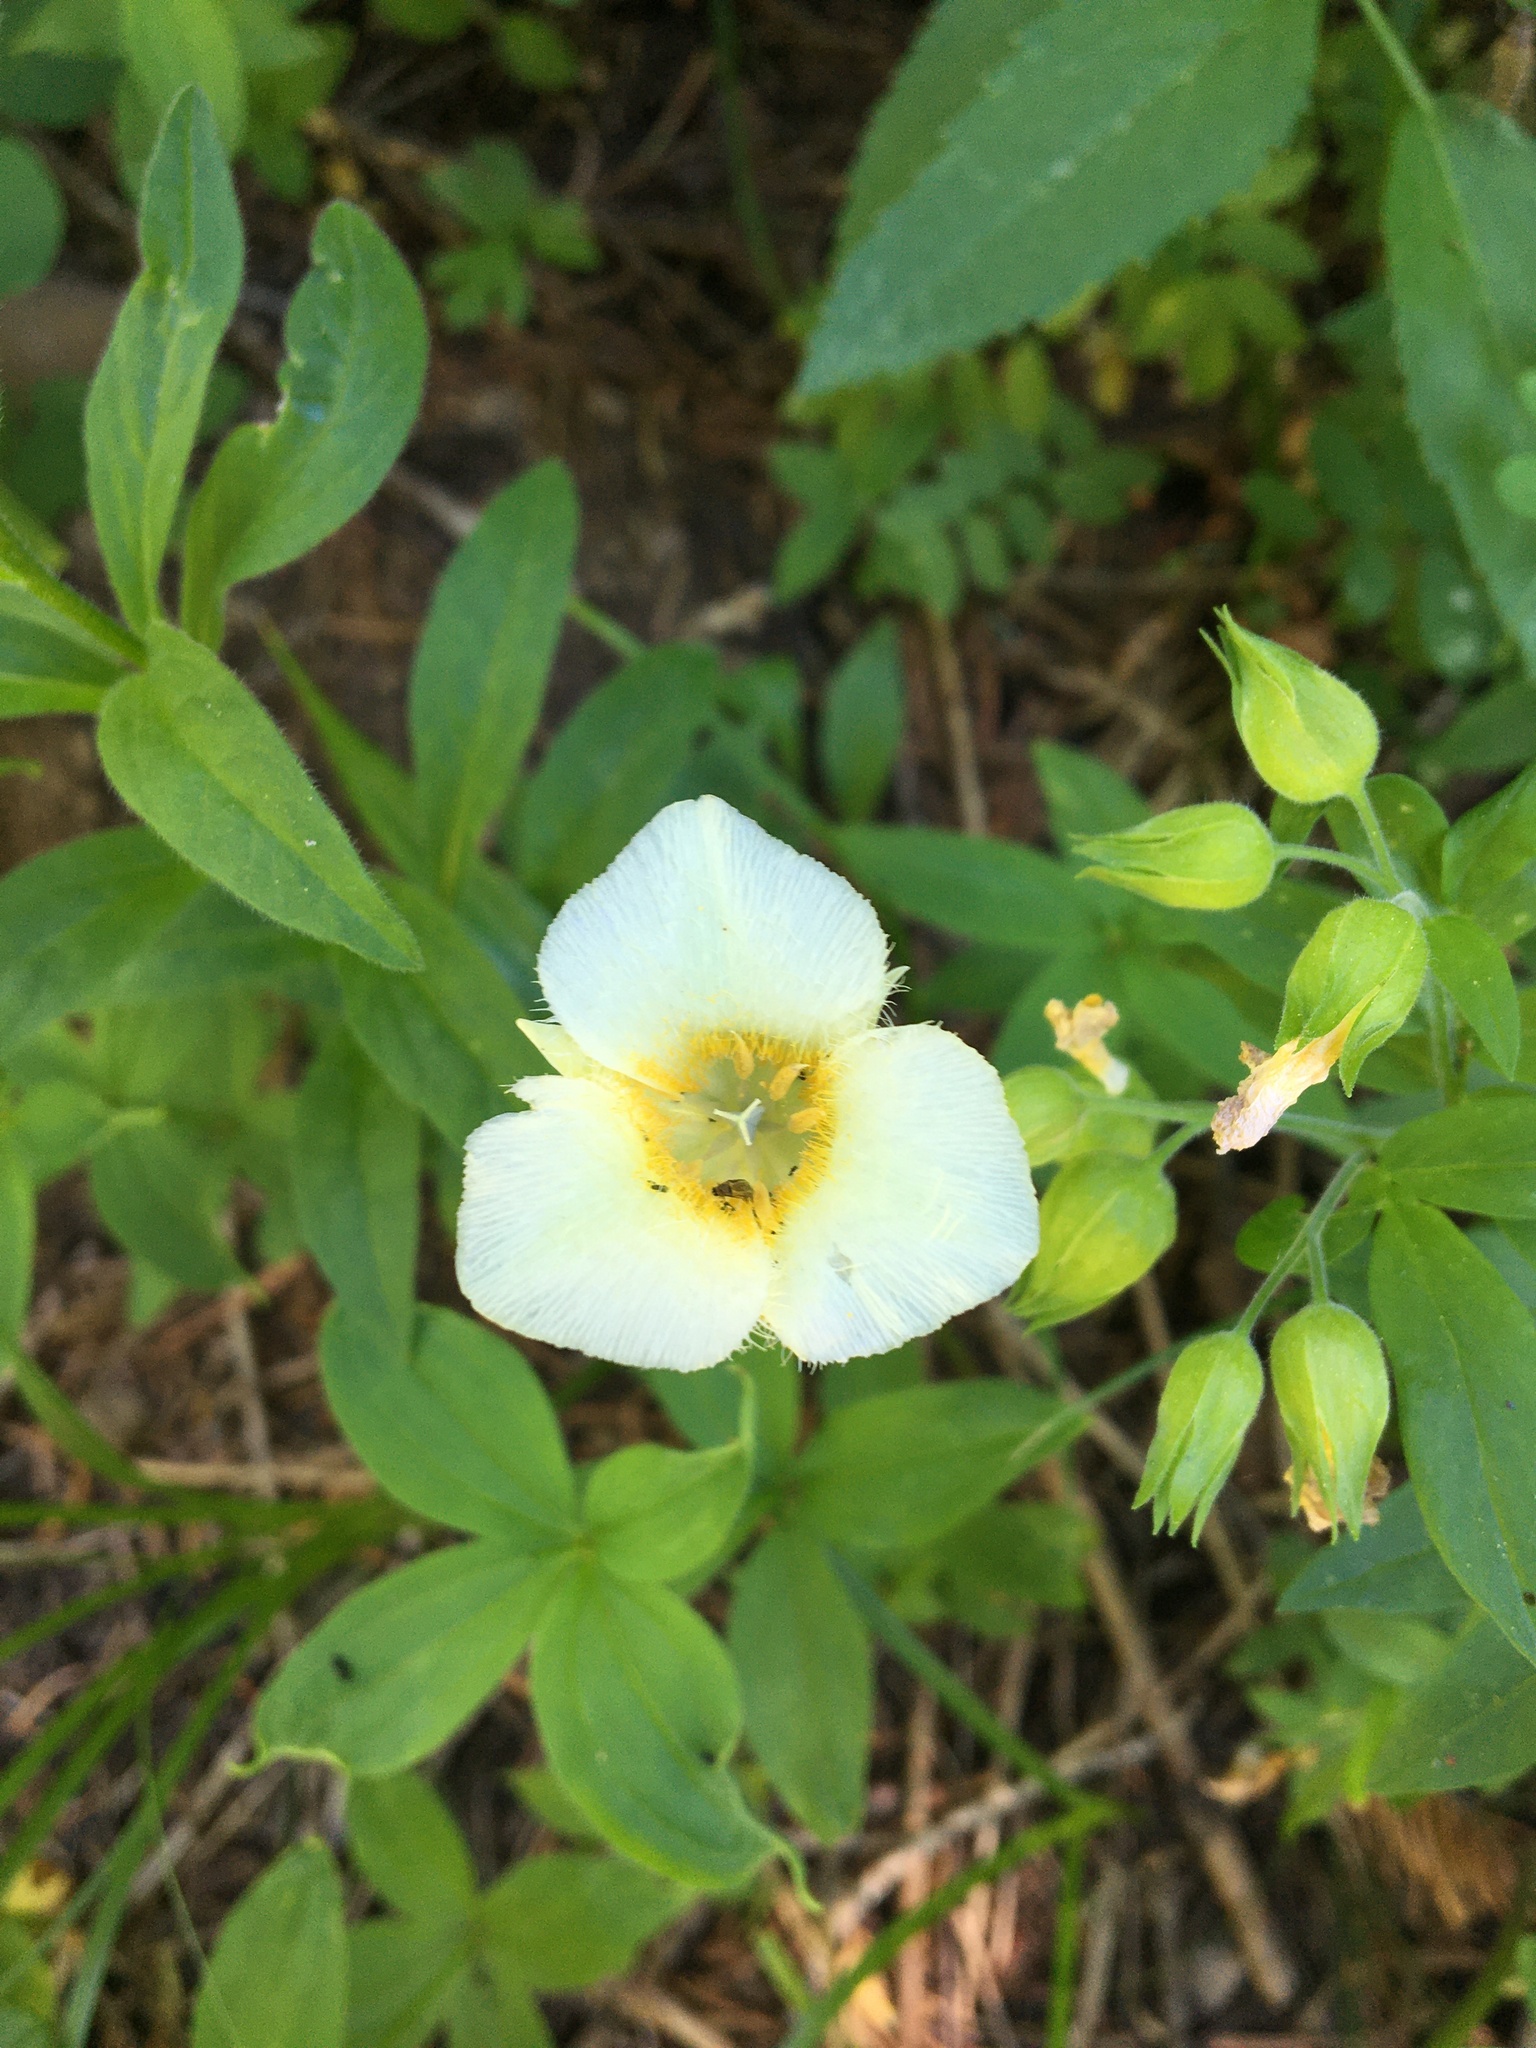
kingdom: Plantae
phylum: Tracheophyta
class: Liliopsida
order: Liliales
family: Liliaceae
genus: Calochortus
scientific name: Calochortus subalpinus
